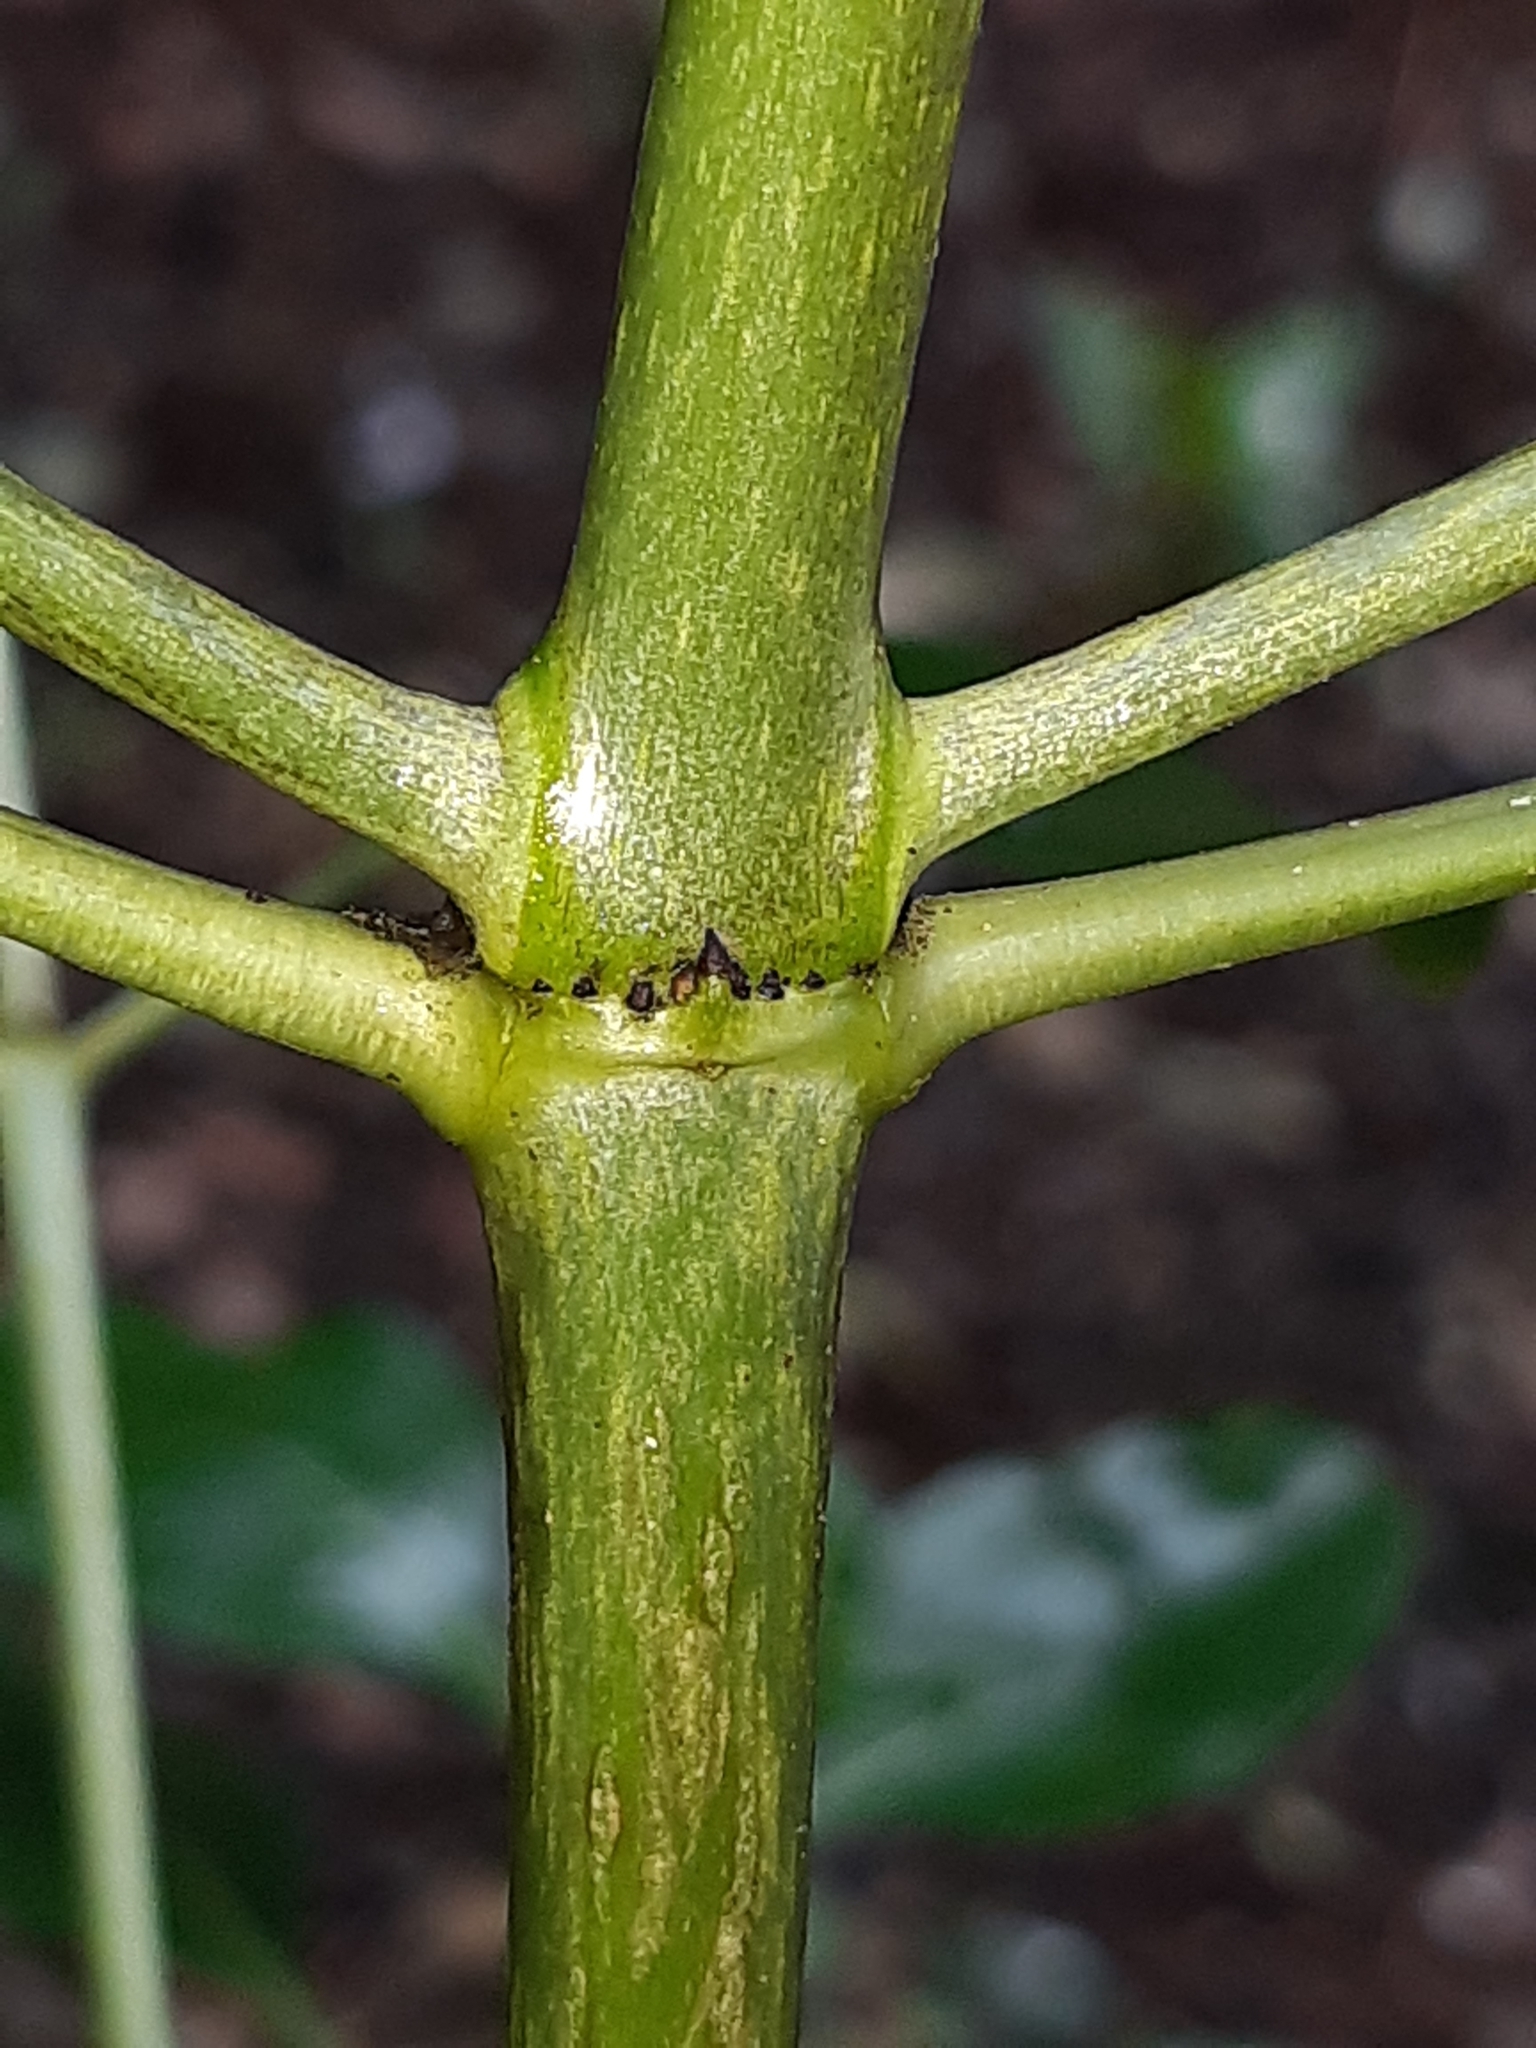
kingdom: Plantae
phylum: Tracheophyta
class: Magnoliopsida
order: Gentianales
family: Rubiaceae
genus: Coprosma
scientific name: Coprosma repens
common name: Tree bedstraw
